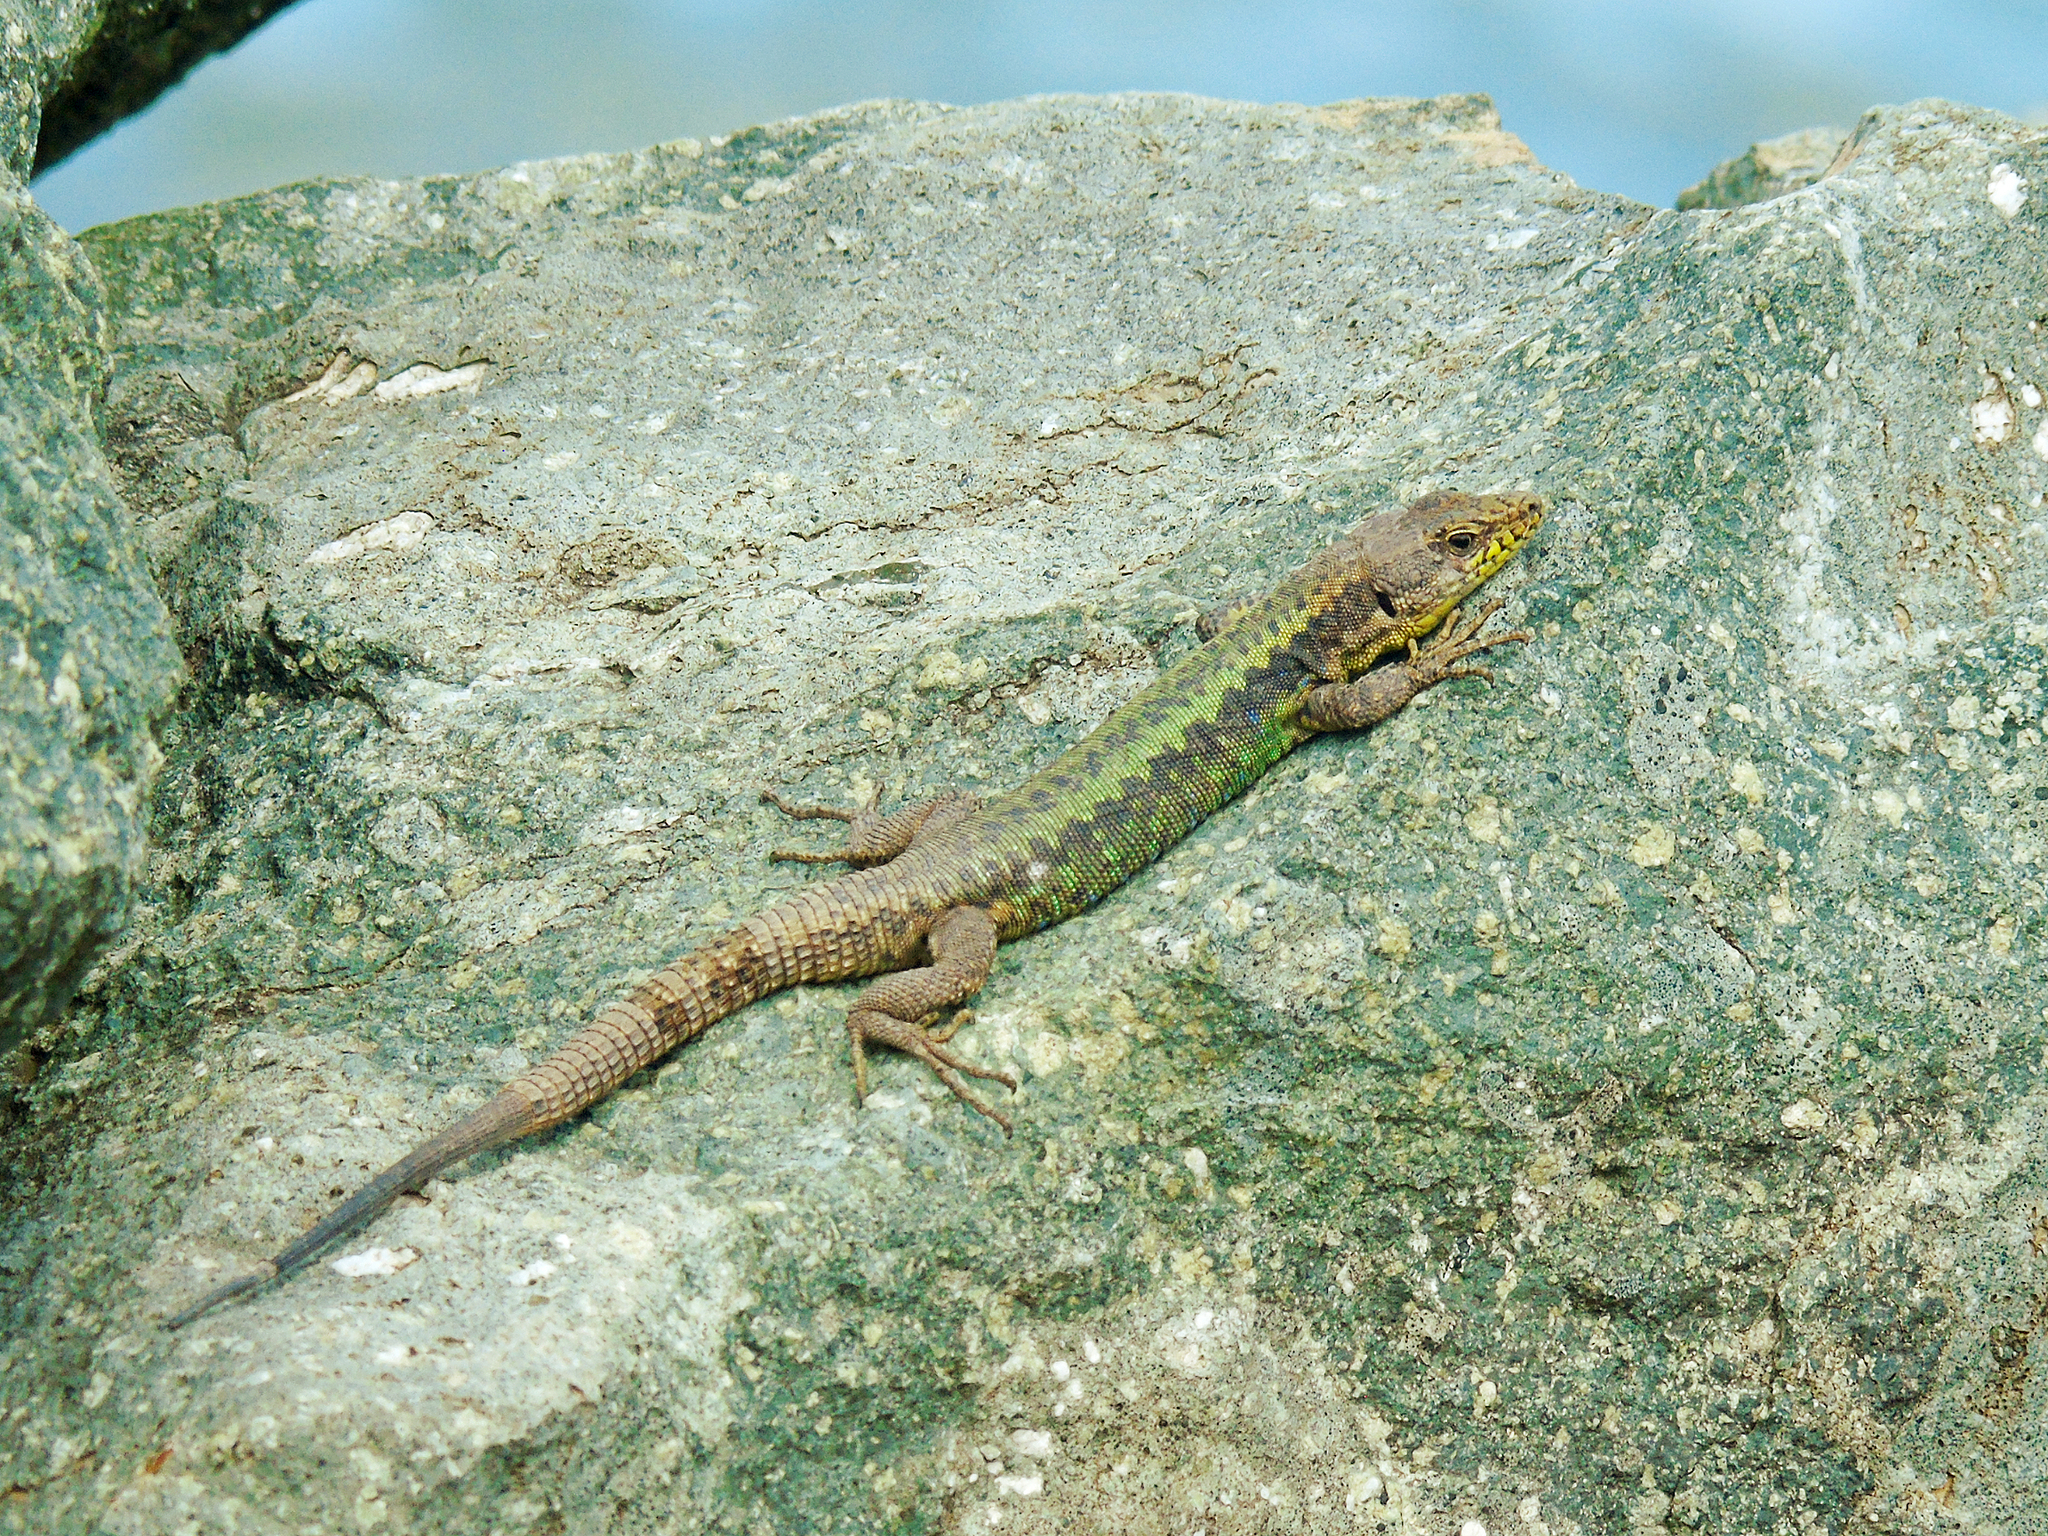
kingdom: Animalia
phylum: Chordata
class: Squamata
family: Lacertidae
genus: Darevskia
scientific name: Darevskia rudis
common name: Spiny-tailed lizard
